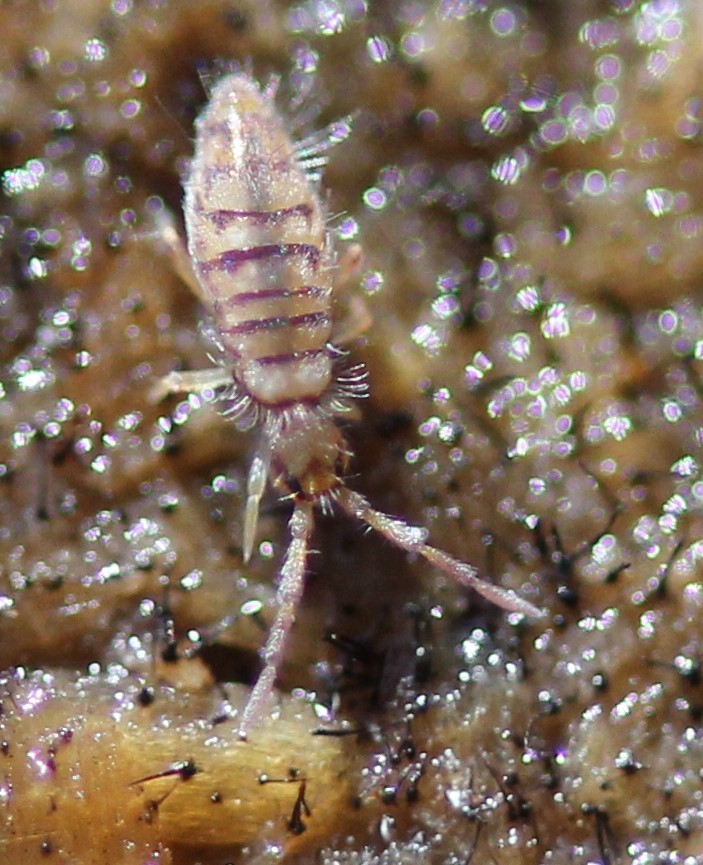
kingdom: Animalia
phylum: Arthropoda
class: Collembola
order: Entomobryomorpha
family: Entomobryidae
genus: Entomobrya
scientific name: Entomobrya atrocincta
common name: Springtail
